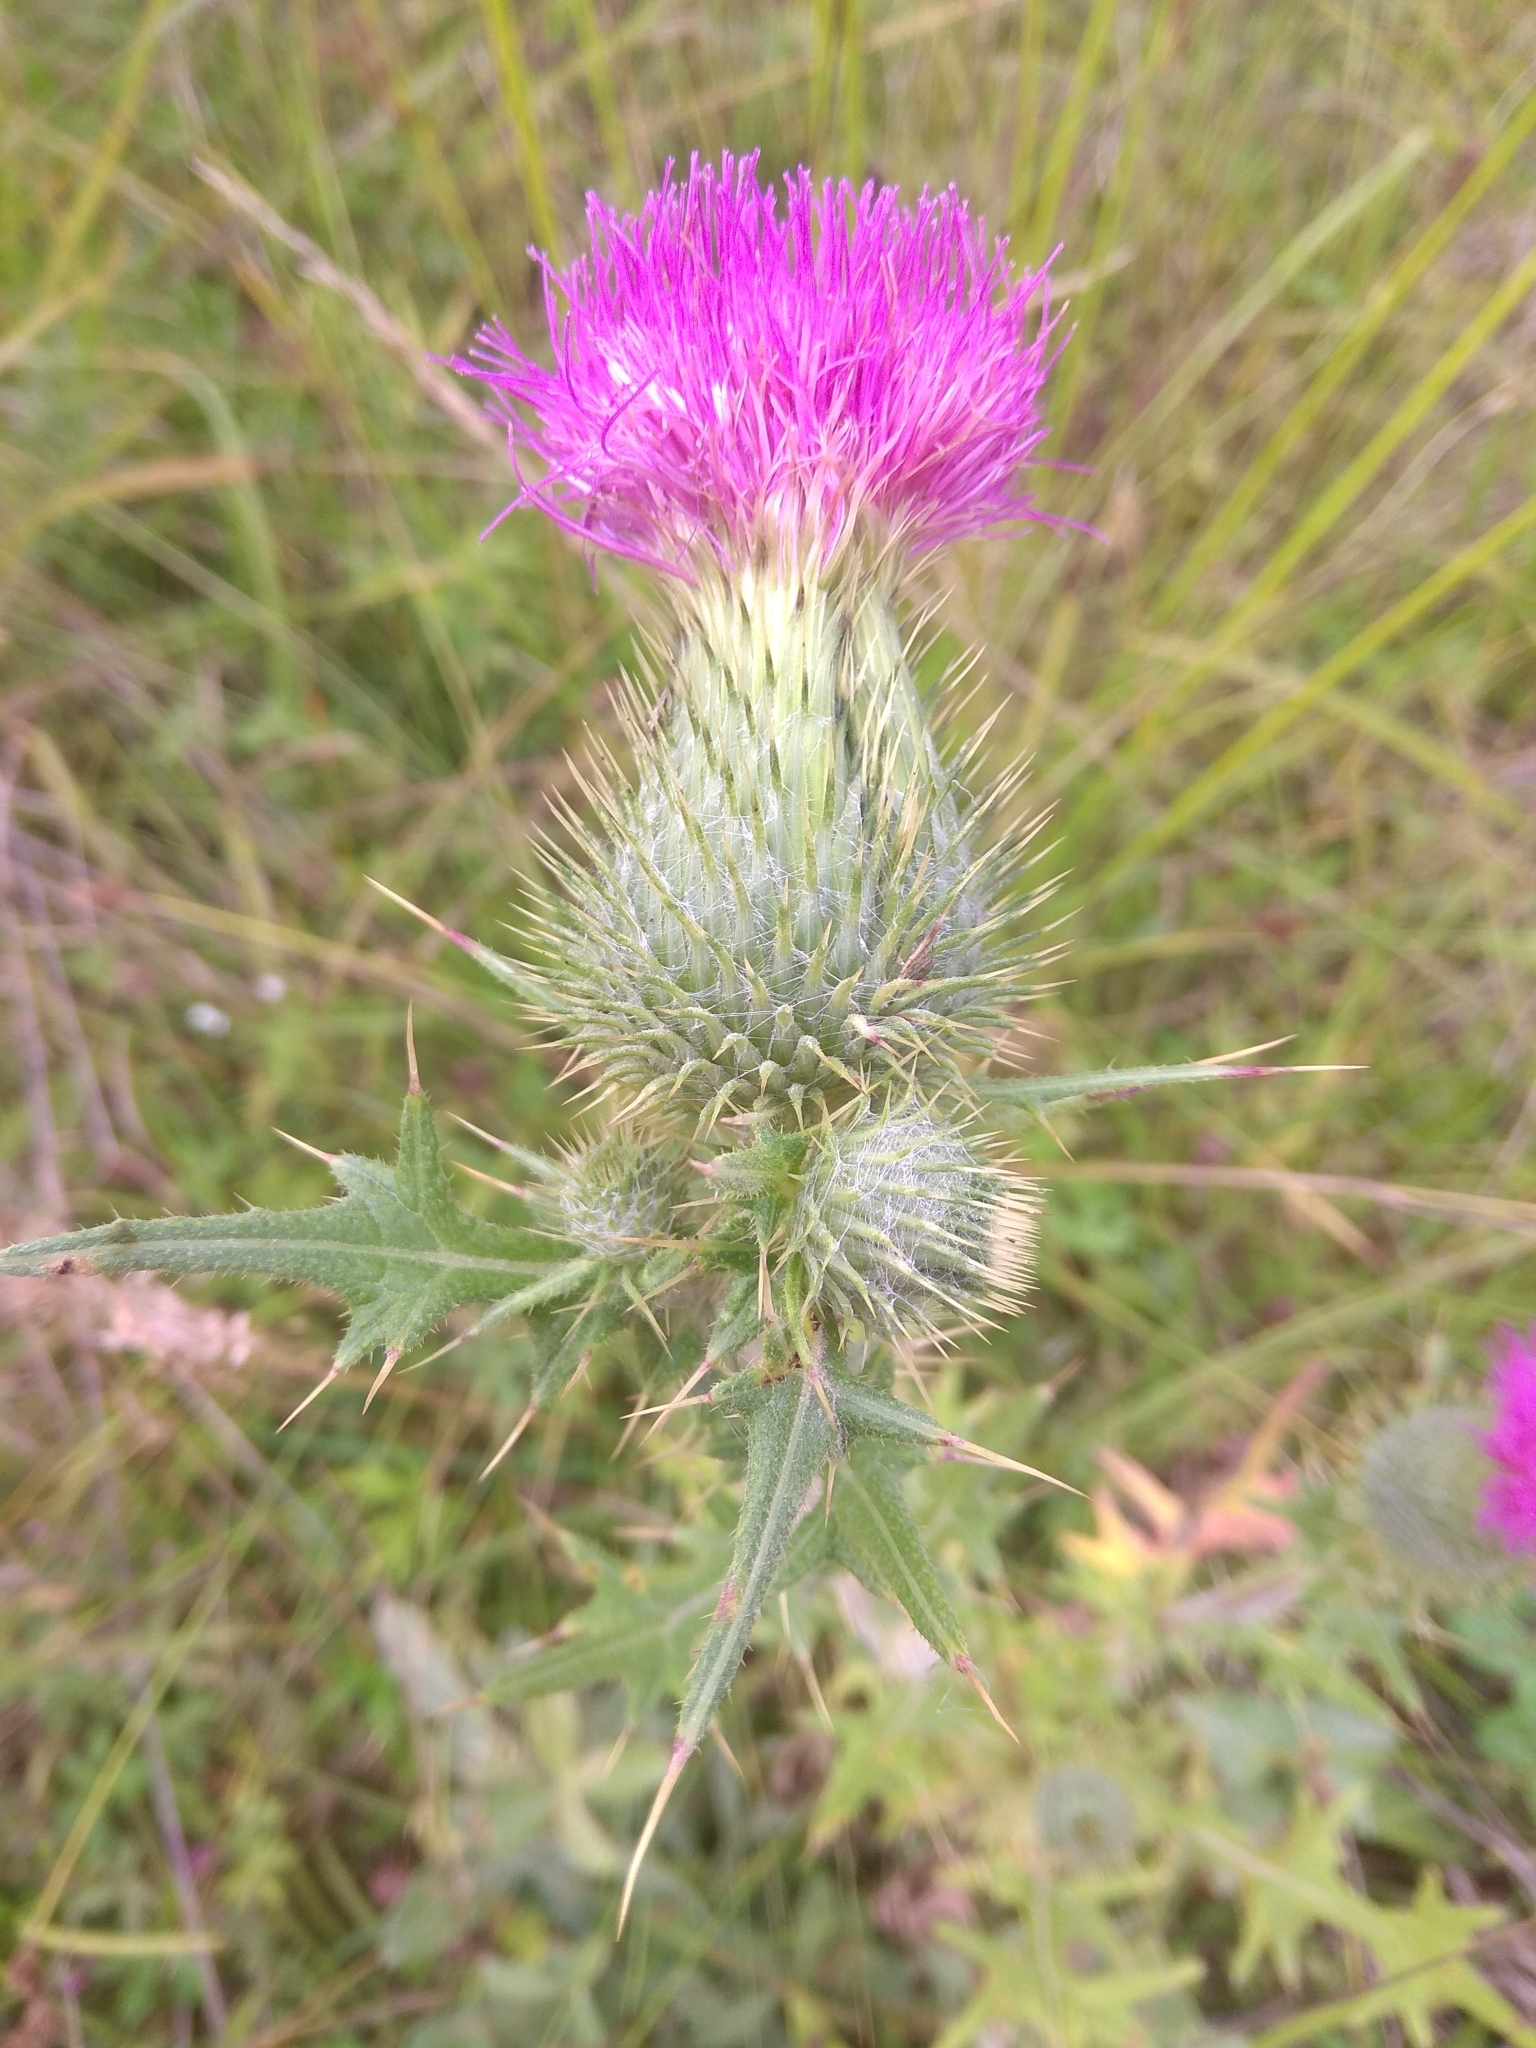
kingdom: Plantae
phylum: Tracheophyta
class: Magnoliopsida
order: Asterales
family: Asteraceae
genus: Cirsium
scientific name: Cirsium vulgare
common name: Bull thistle
